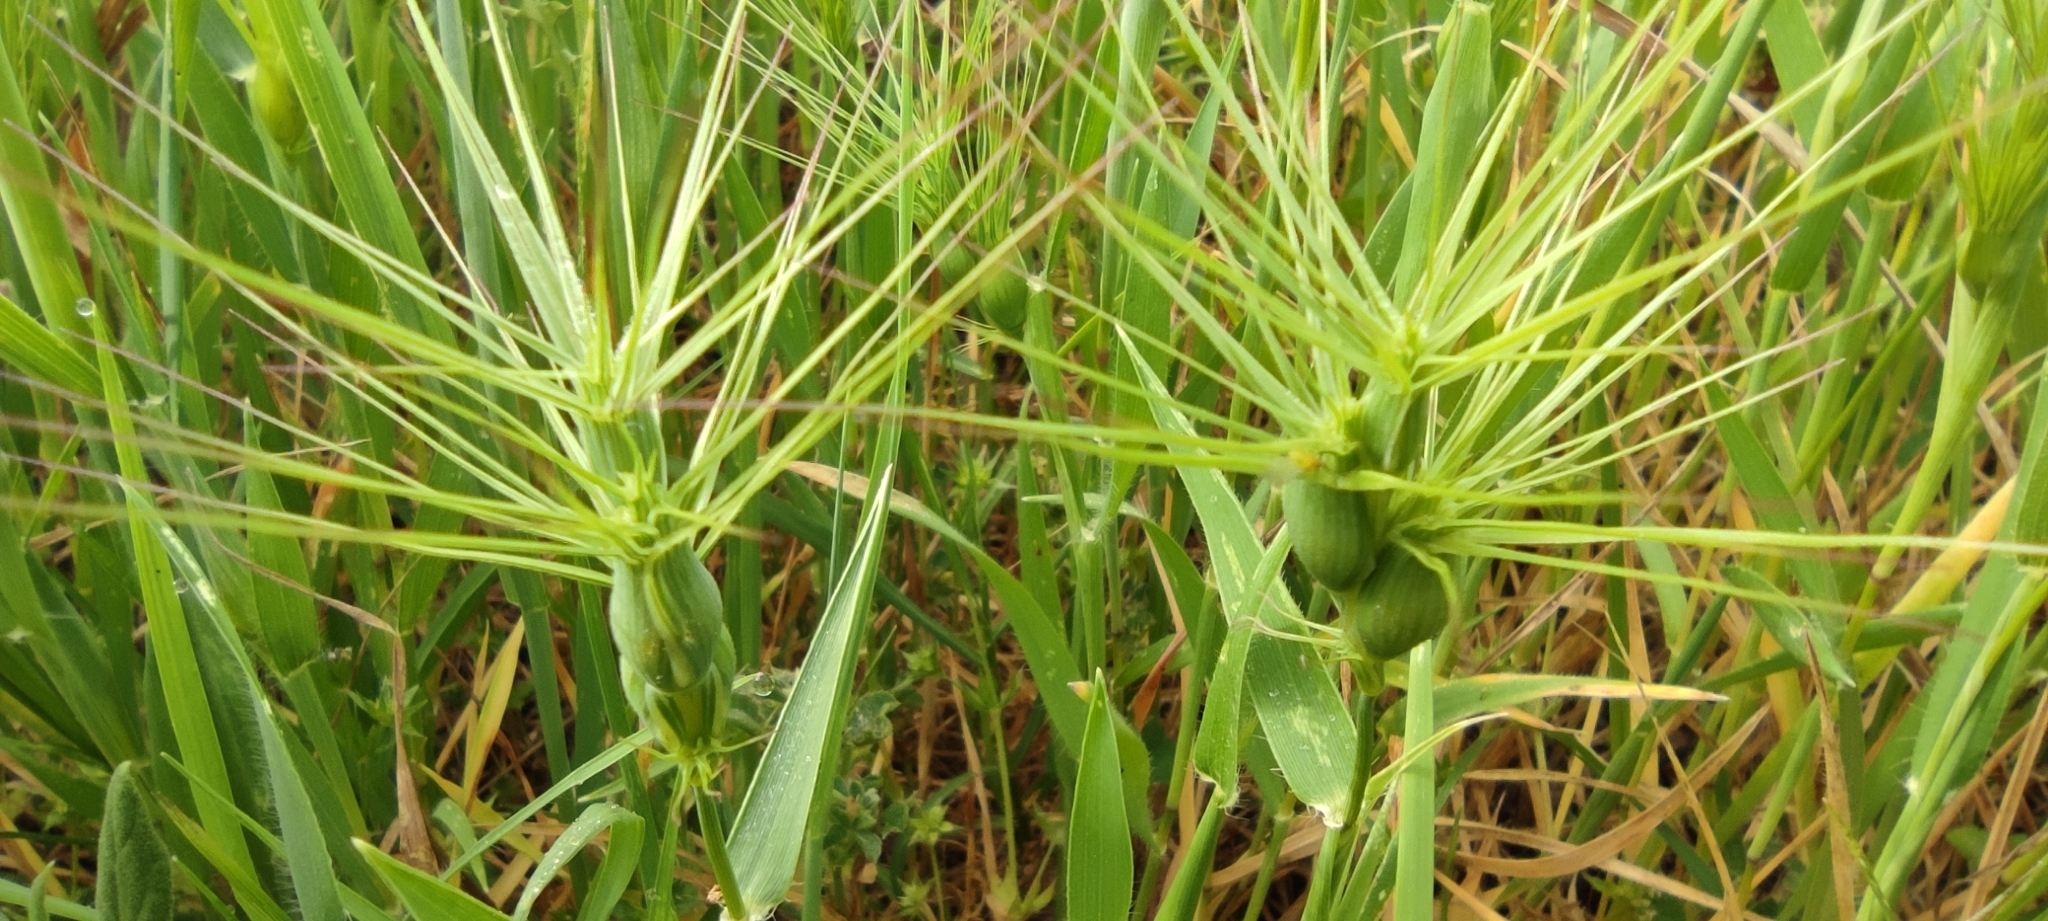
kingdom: Plantae
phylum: Tracheophyta
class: Liliopsida
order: Poales
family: Poaceae
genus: Aegilops
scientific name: Aegilops geniculata
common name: Ovate goat grass
